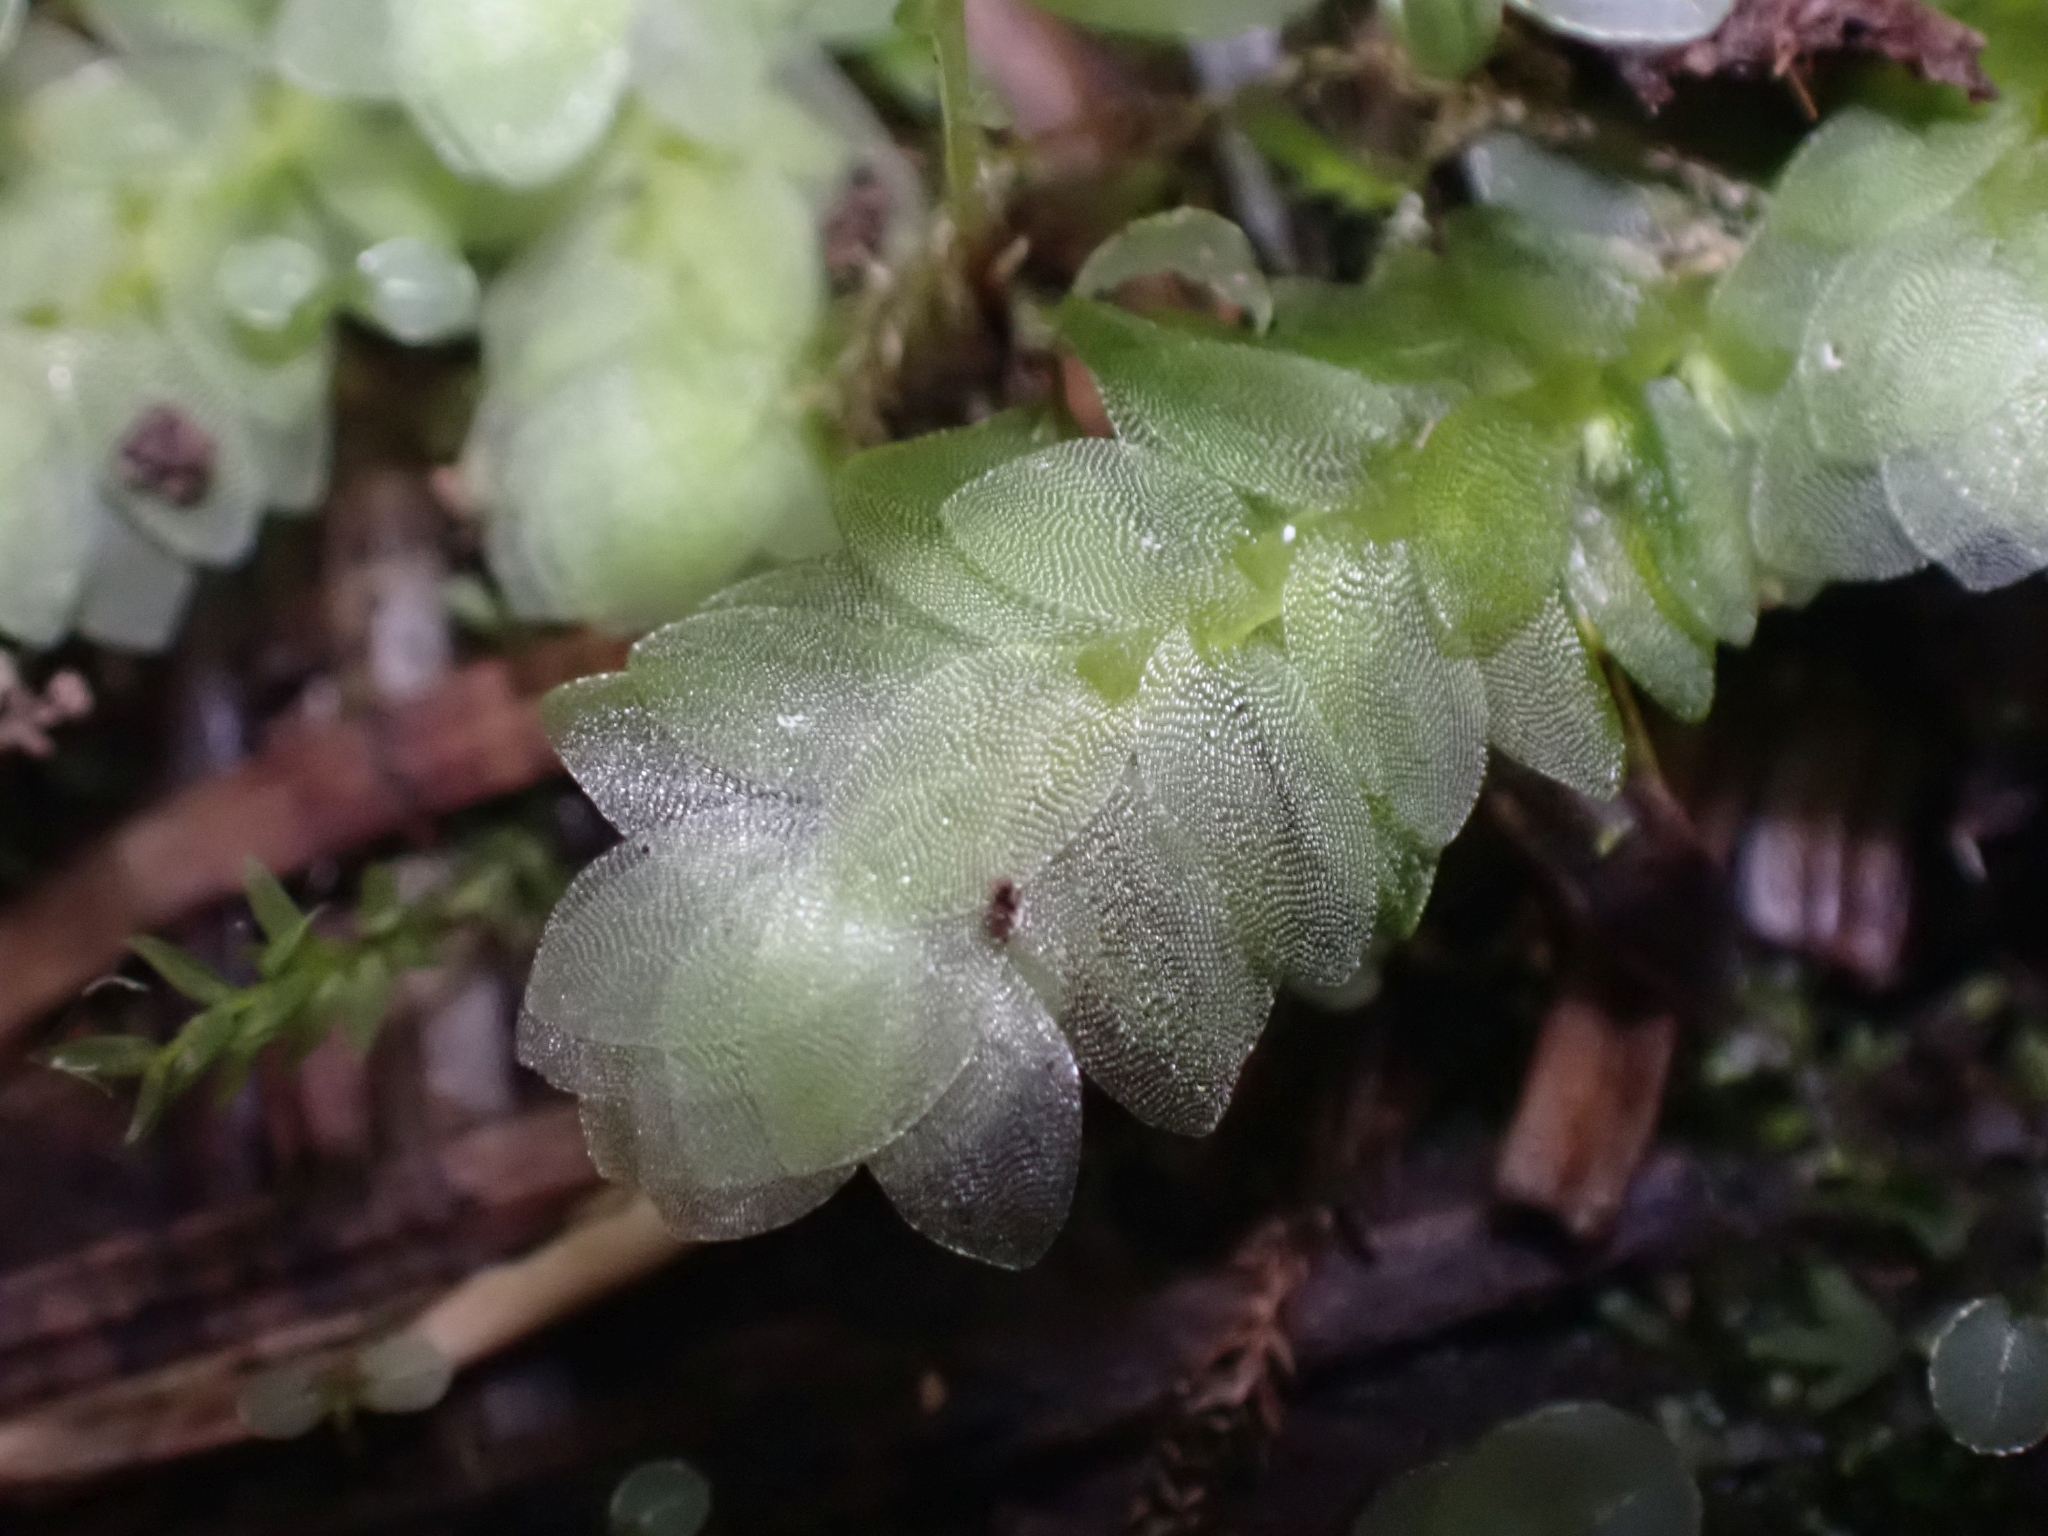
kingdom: Plantae
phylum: Bryophyta
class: Bryopsida
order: Hookeriales
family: Hookeriaceae
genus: Hookeria
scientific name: Hookeria lucens
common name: Shining hookeria
